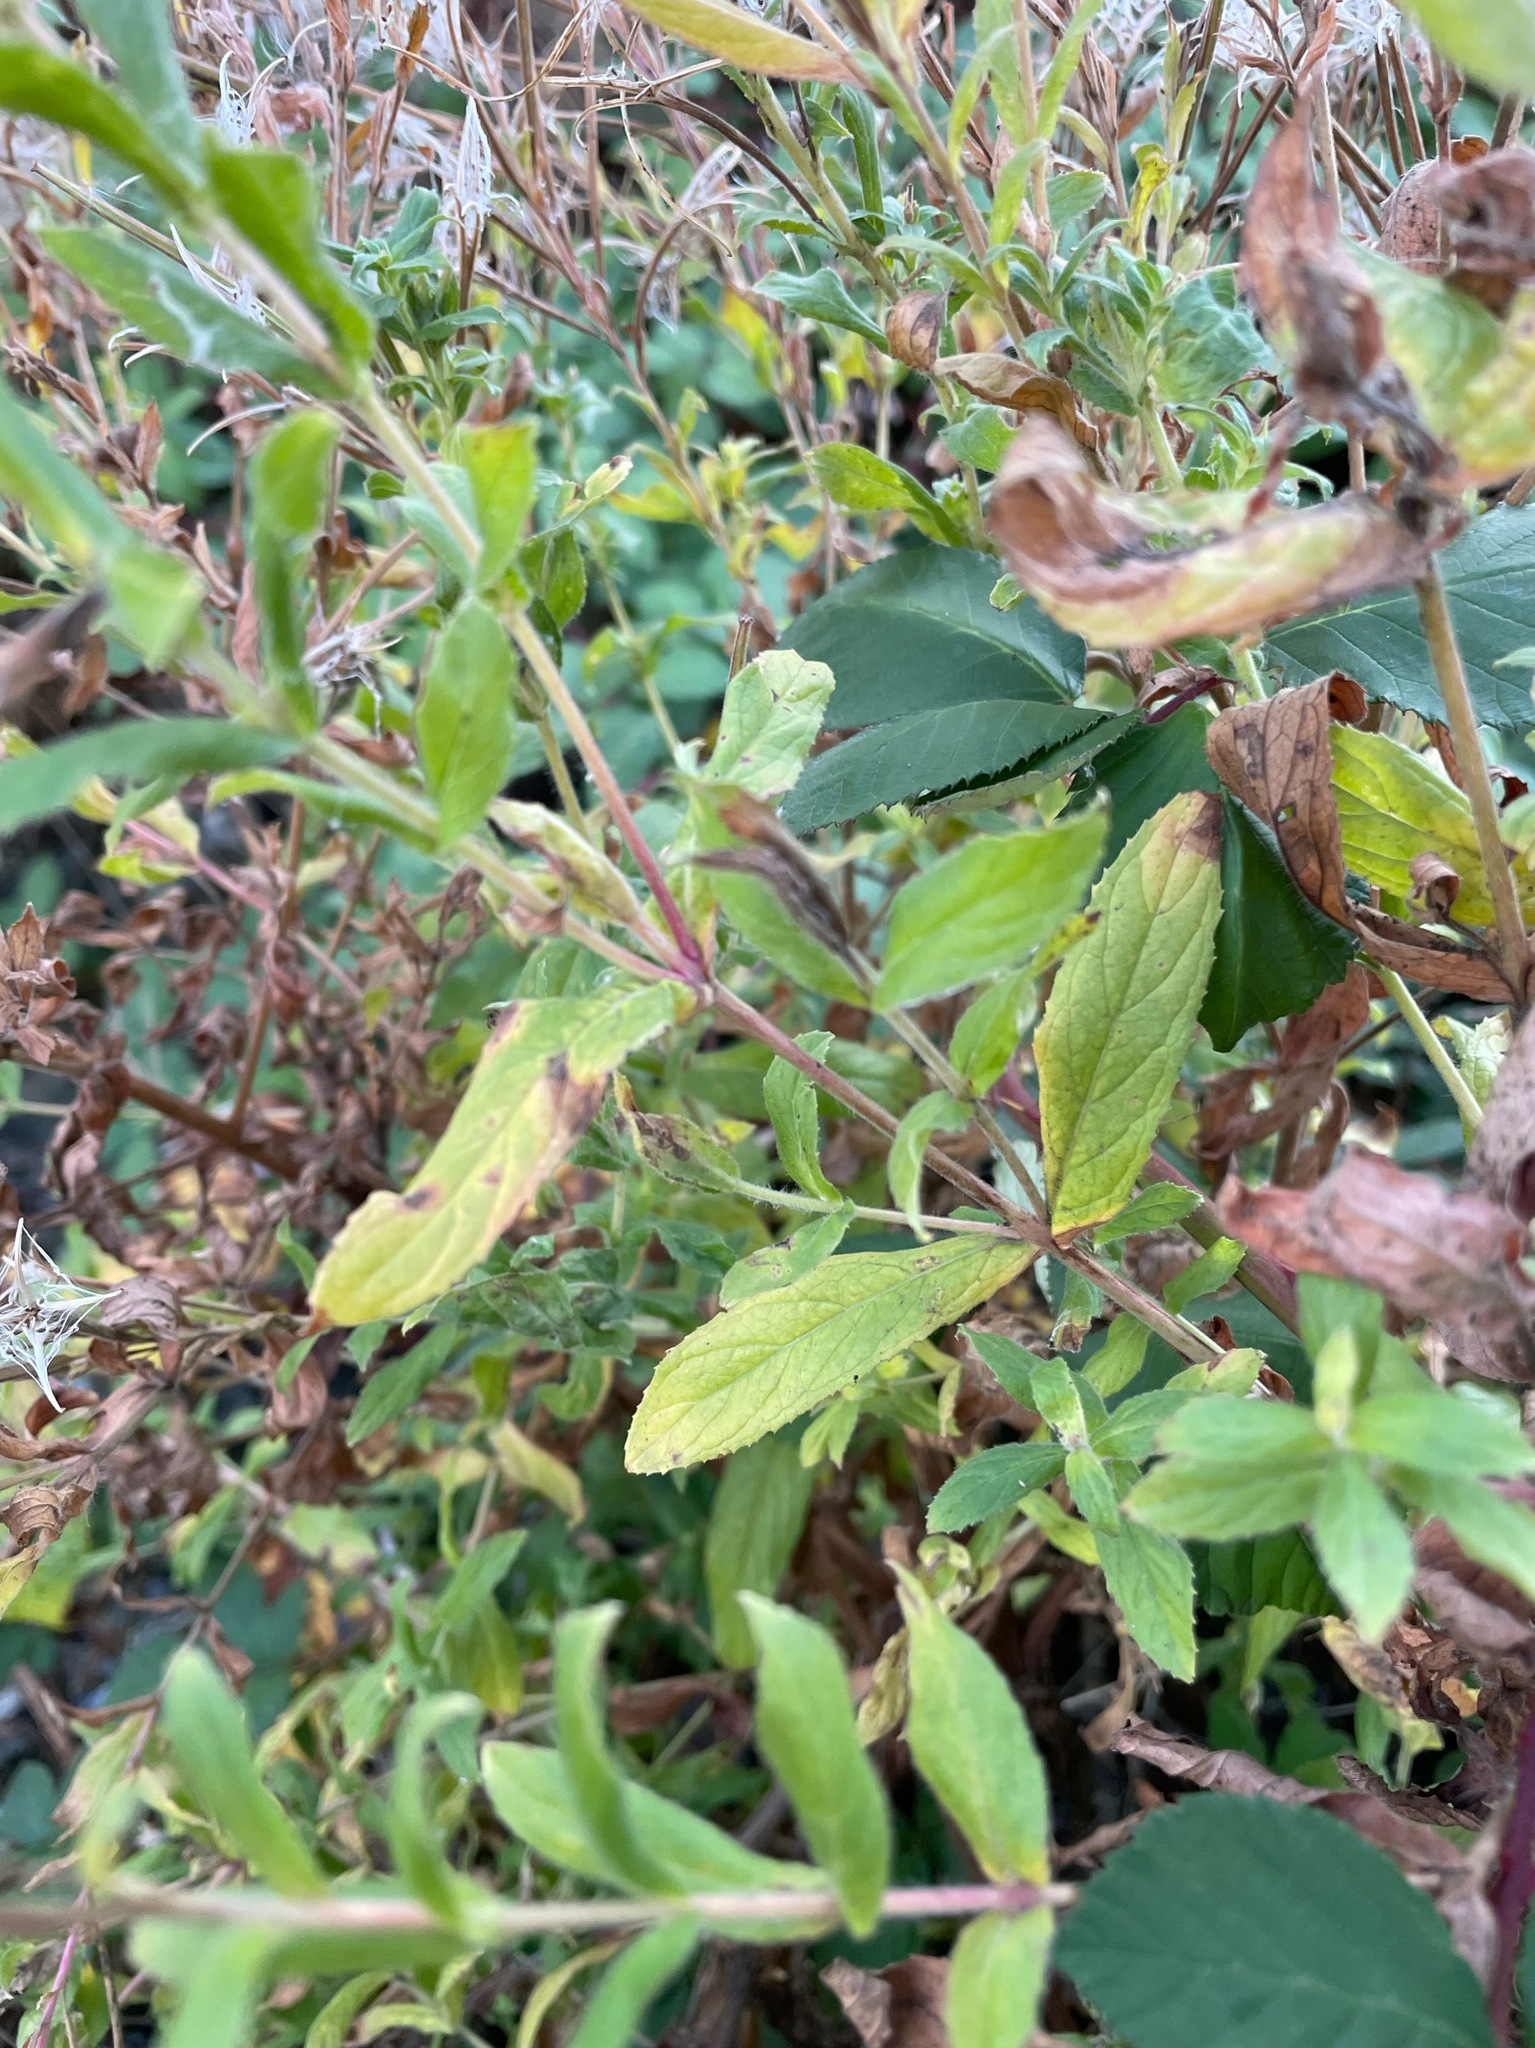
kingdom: Plantae
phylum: Tracheophyta
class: Magnoliopsida
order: Myrtales
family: Onagraceae
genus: Epilobium
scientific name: Epilobium hirsutum
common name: Great willowherb
